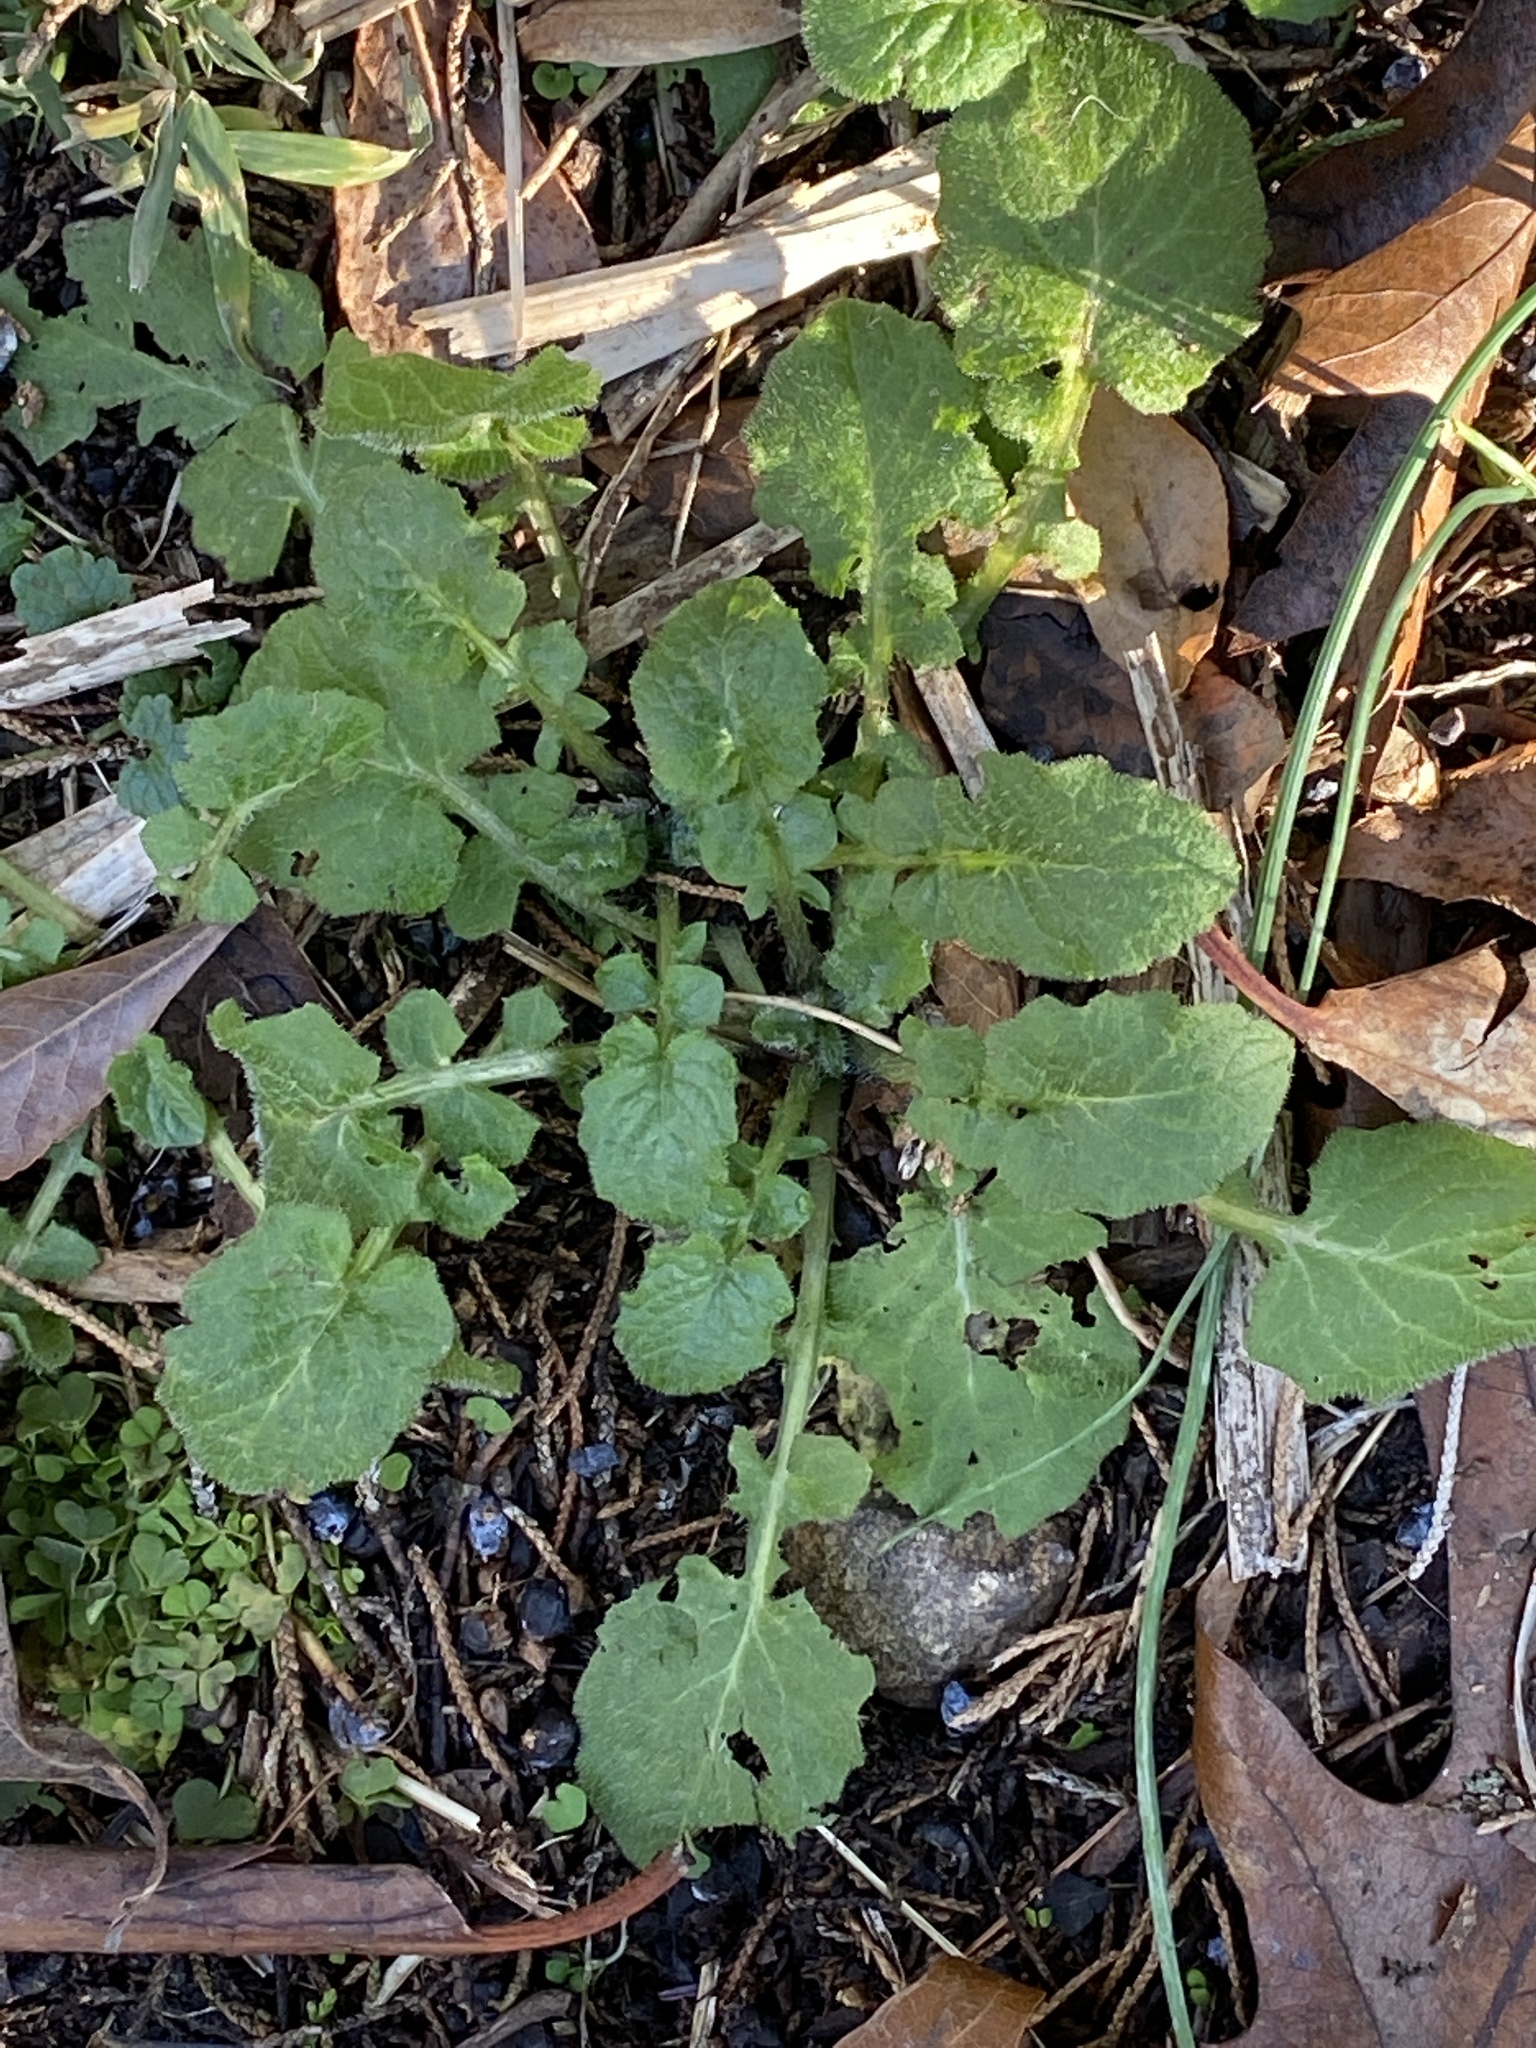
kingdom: Plantae
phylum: Tracheophyta
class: Magnoliopsida
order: Asterales
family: Asteraceae
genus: Youngia
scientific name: Youngia japonica
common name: Oriental false hawksbeard
